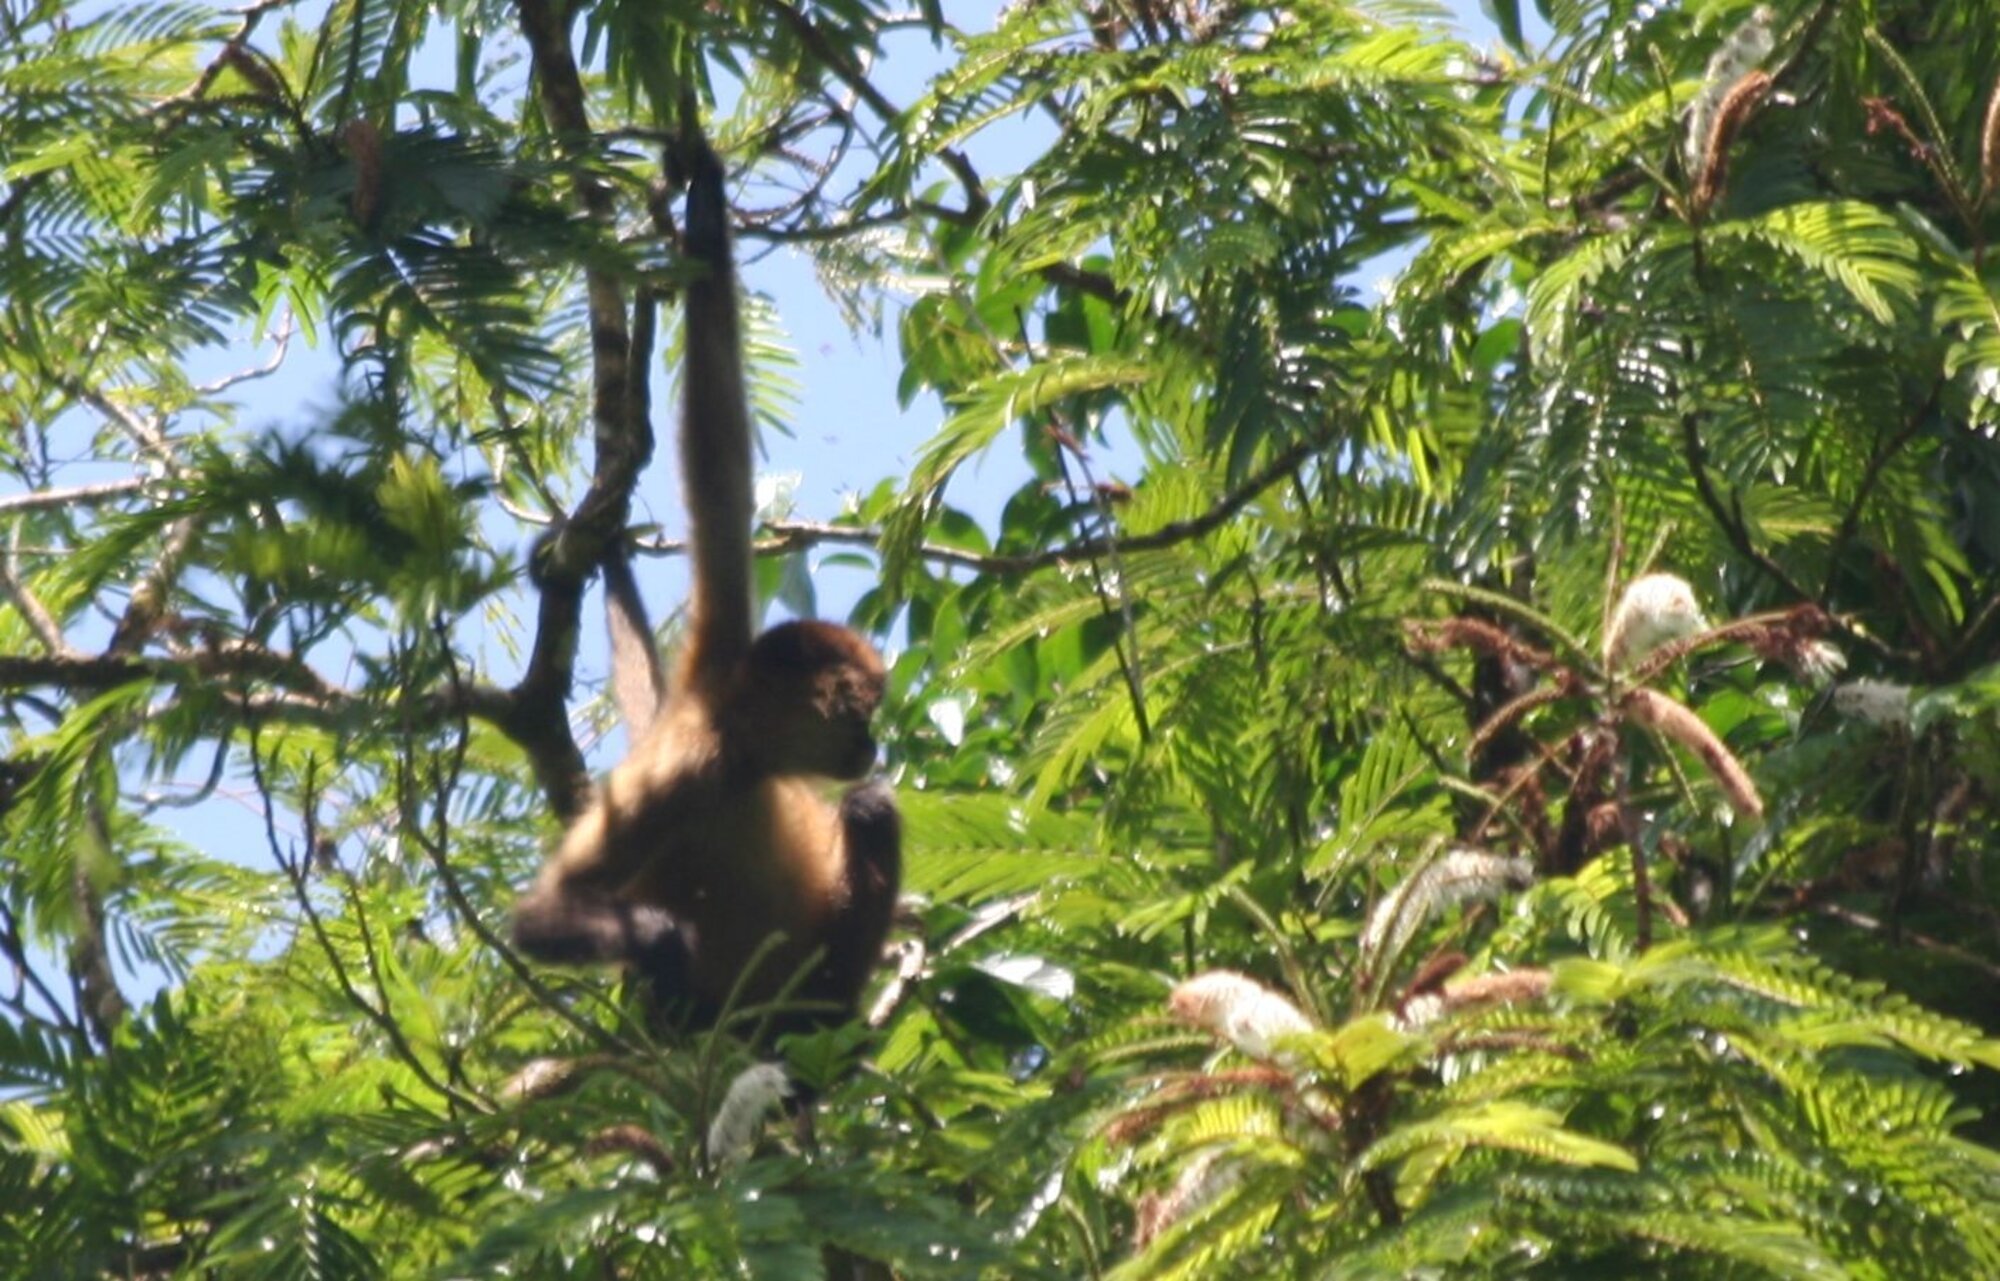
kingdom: Animalia
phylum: Chordata
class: Mammalia
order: Primates
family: Atelidae
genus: Ateles
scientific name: Ateles geoffroyi
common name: Black-handed spider monkey
